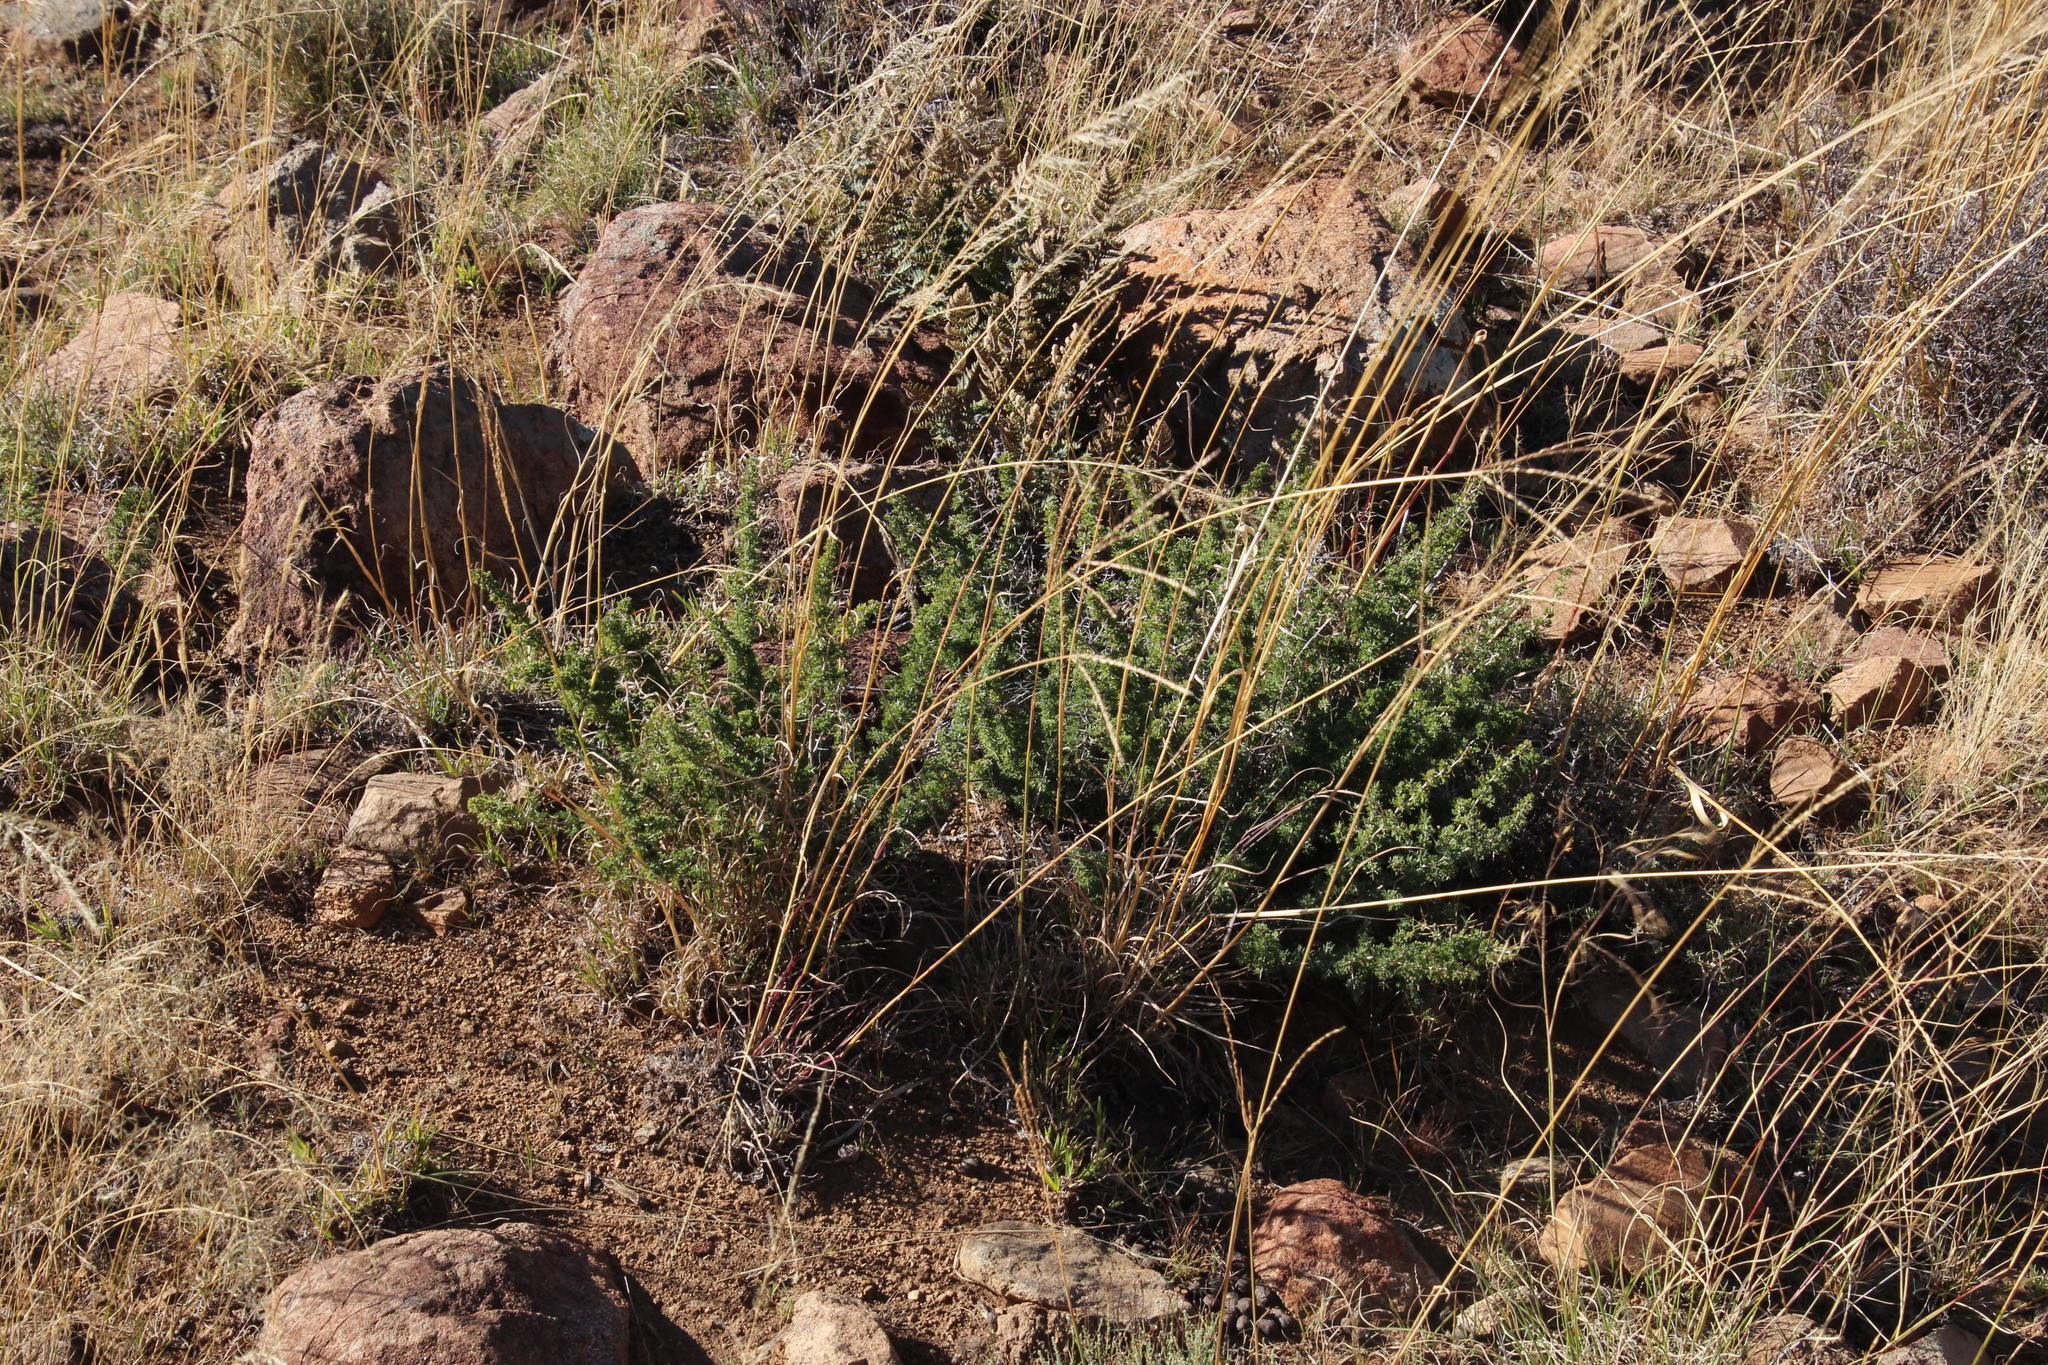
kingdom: Plantae
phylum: Tracheophyta
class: Liliopsida
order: Asparagales
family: Asparagaceae
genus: Asparagus
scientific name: Asparagus suaveolens
